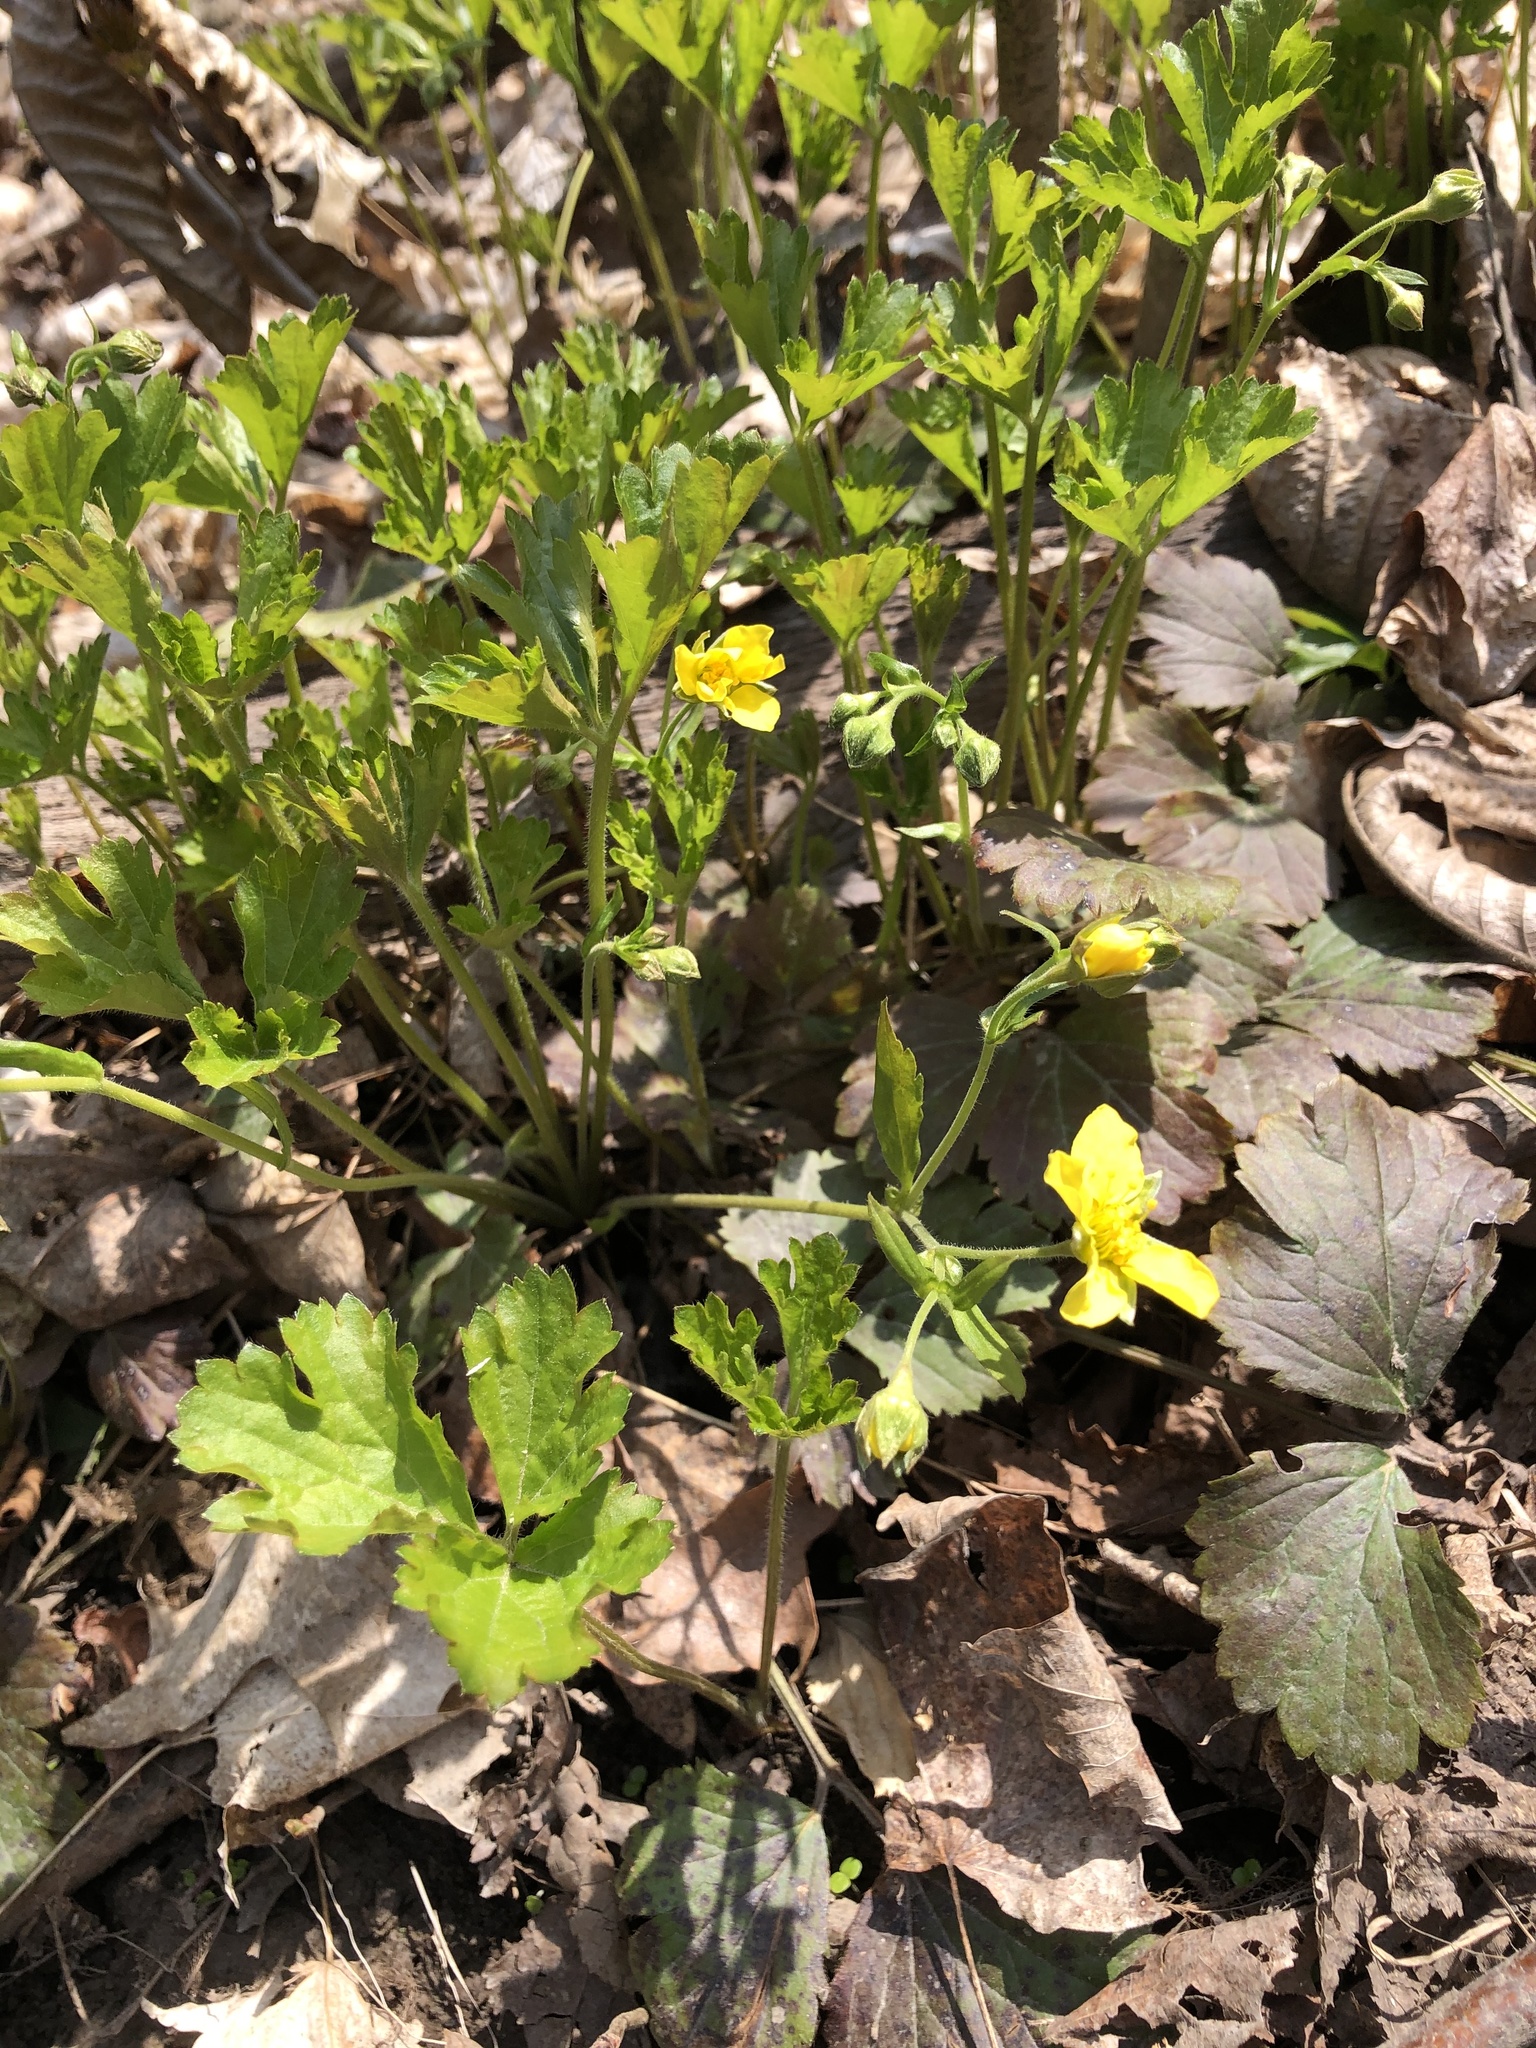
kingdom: Plantae
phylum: Tracheophyta
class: Magnoliopsida
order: Rosales
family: Rosaceae
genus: Geum
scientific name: Geum fragarioides
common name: Appalachian barren strawberry
